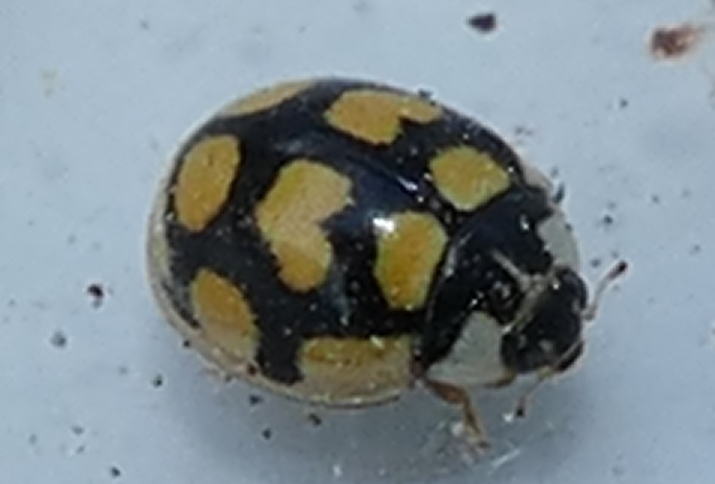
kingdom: Animalia
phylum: Arthropoda
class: Insecta
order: Coleoptera
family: Coccinellidae
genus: Oenopia
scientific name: Oenopia lyncea
